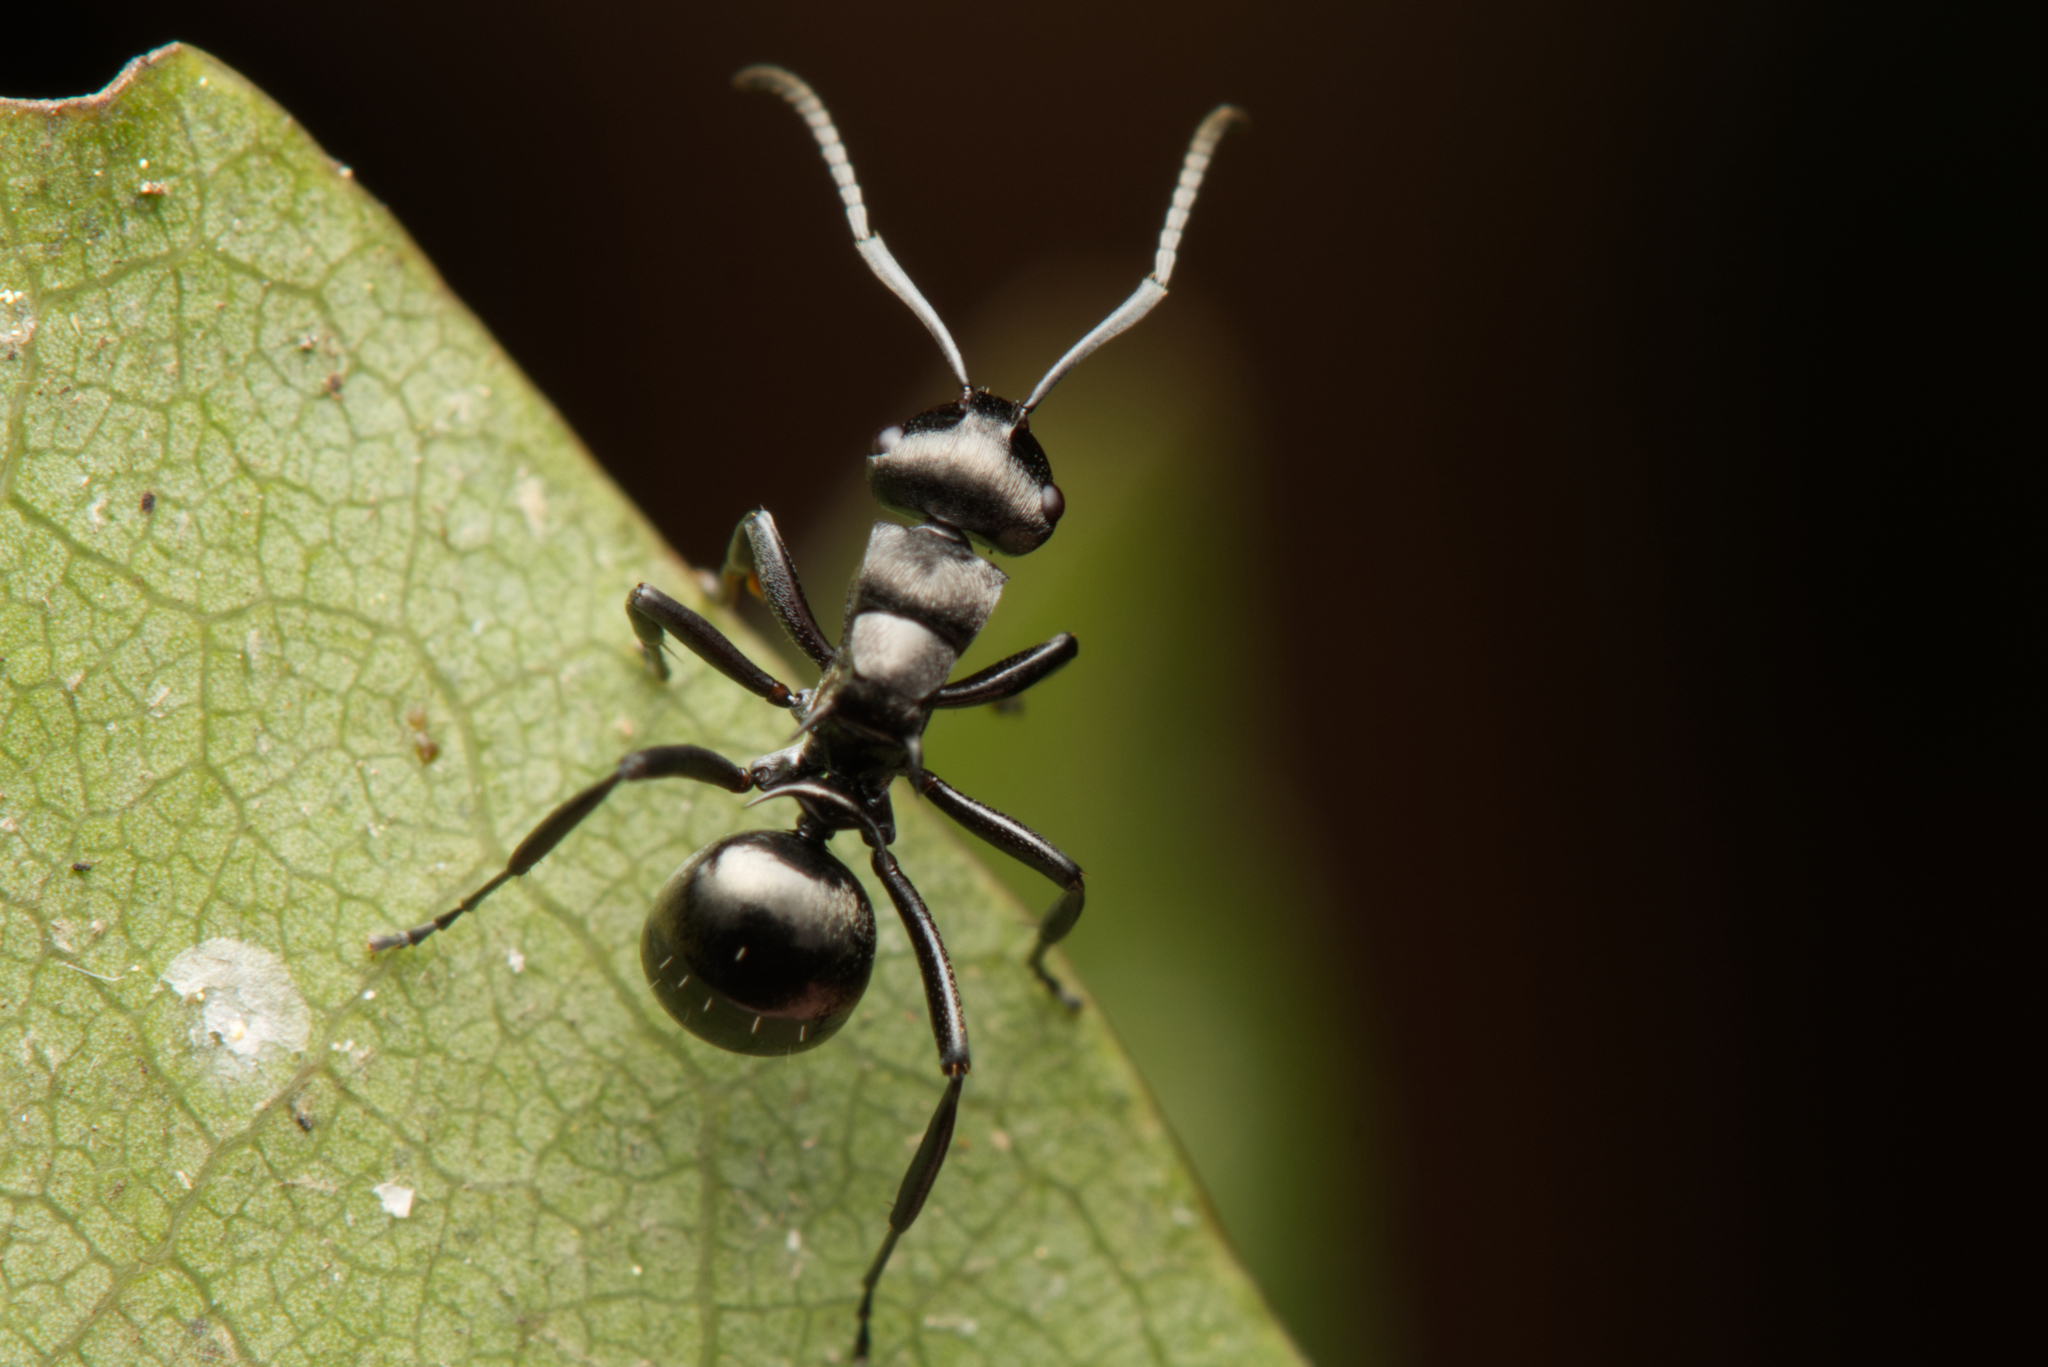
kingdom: Animalia
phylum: Arthropoda
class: Insecta
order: Hymenoptera
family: Formicidae
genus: Polyrhachis
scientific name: Polyrhachis clio
